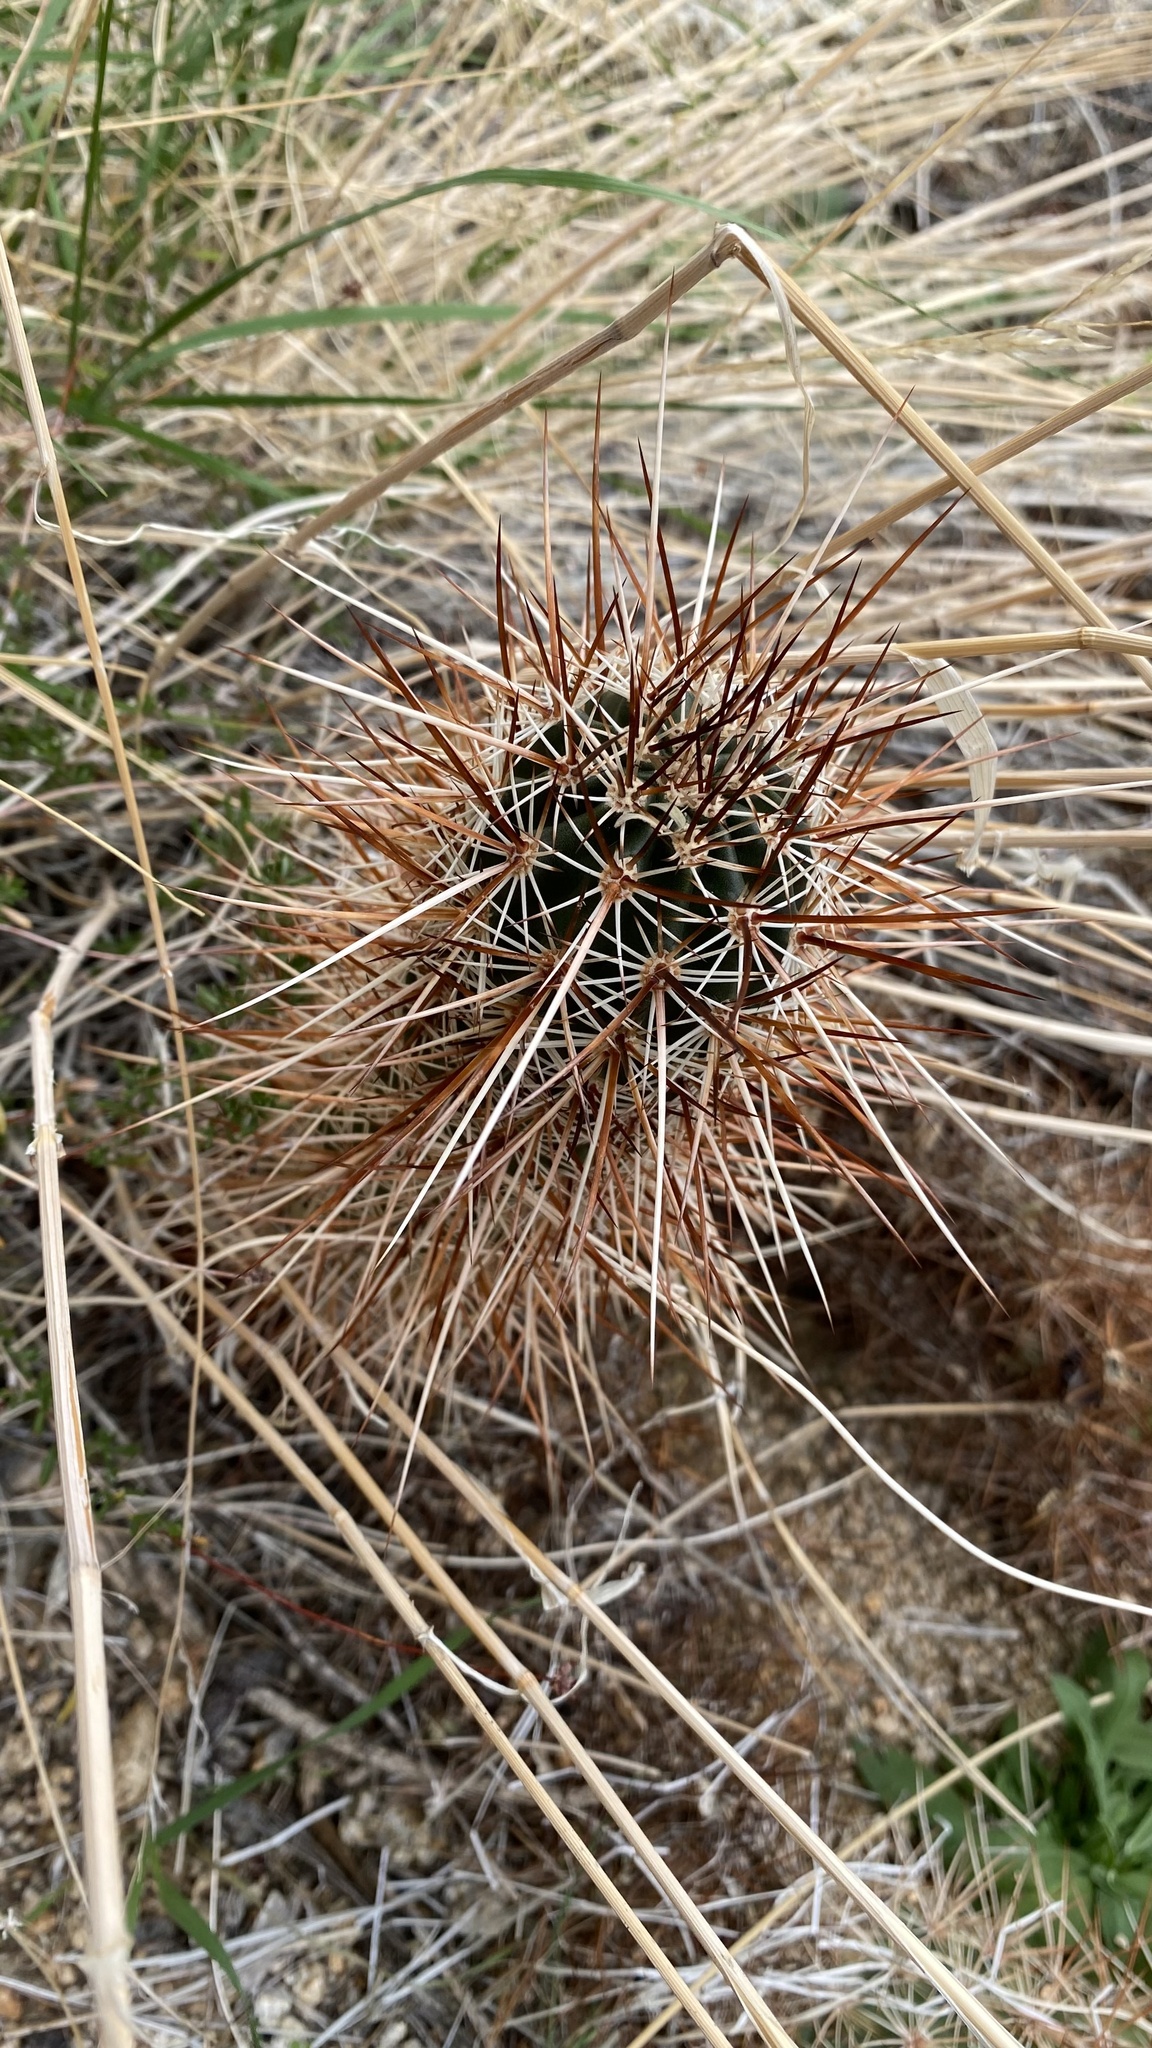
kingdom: Plantae
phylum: Tracheophyta
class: Magnoliopsida
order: Caryophyllales
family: Cactaceae
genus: Echinocereus
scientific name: Echinocereus engelmannii
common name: Engelmann's hedgehog cactus
